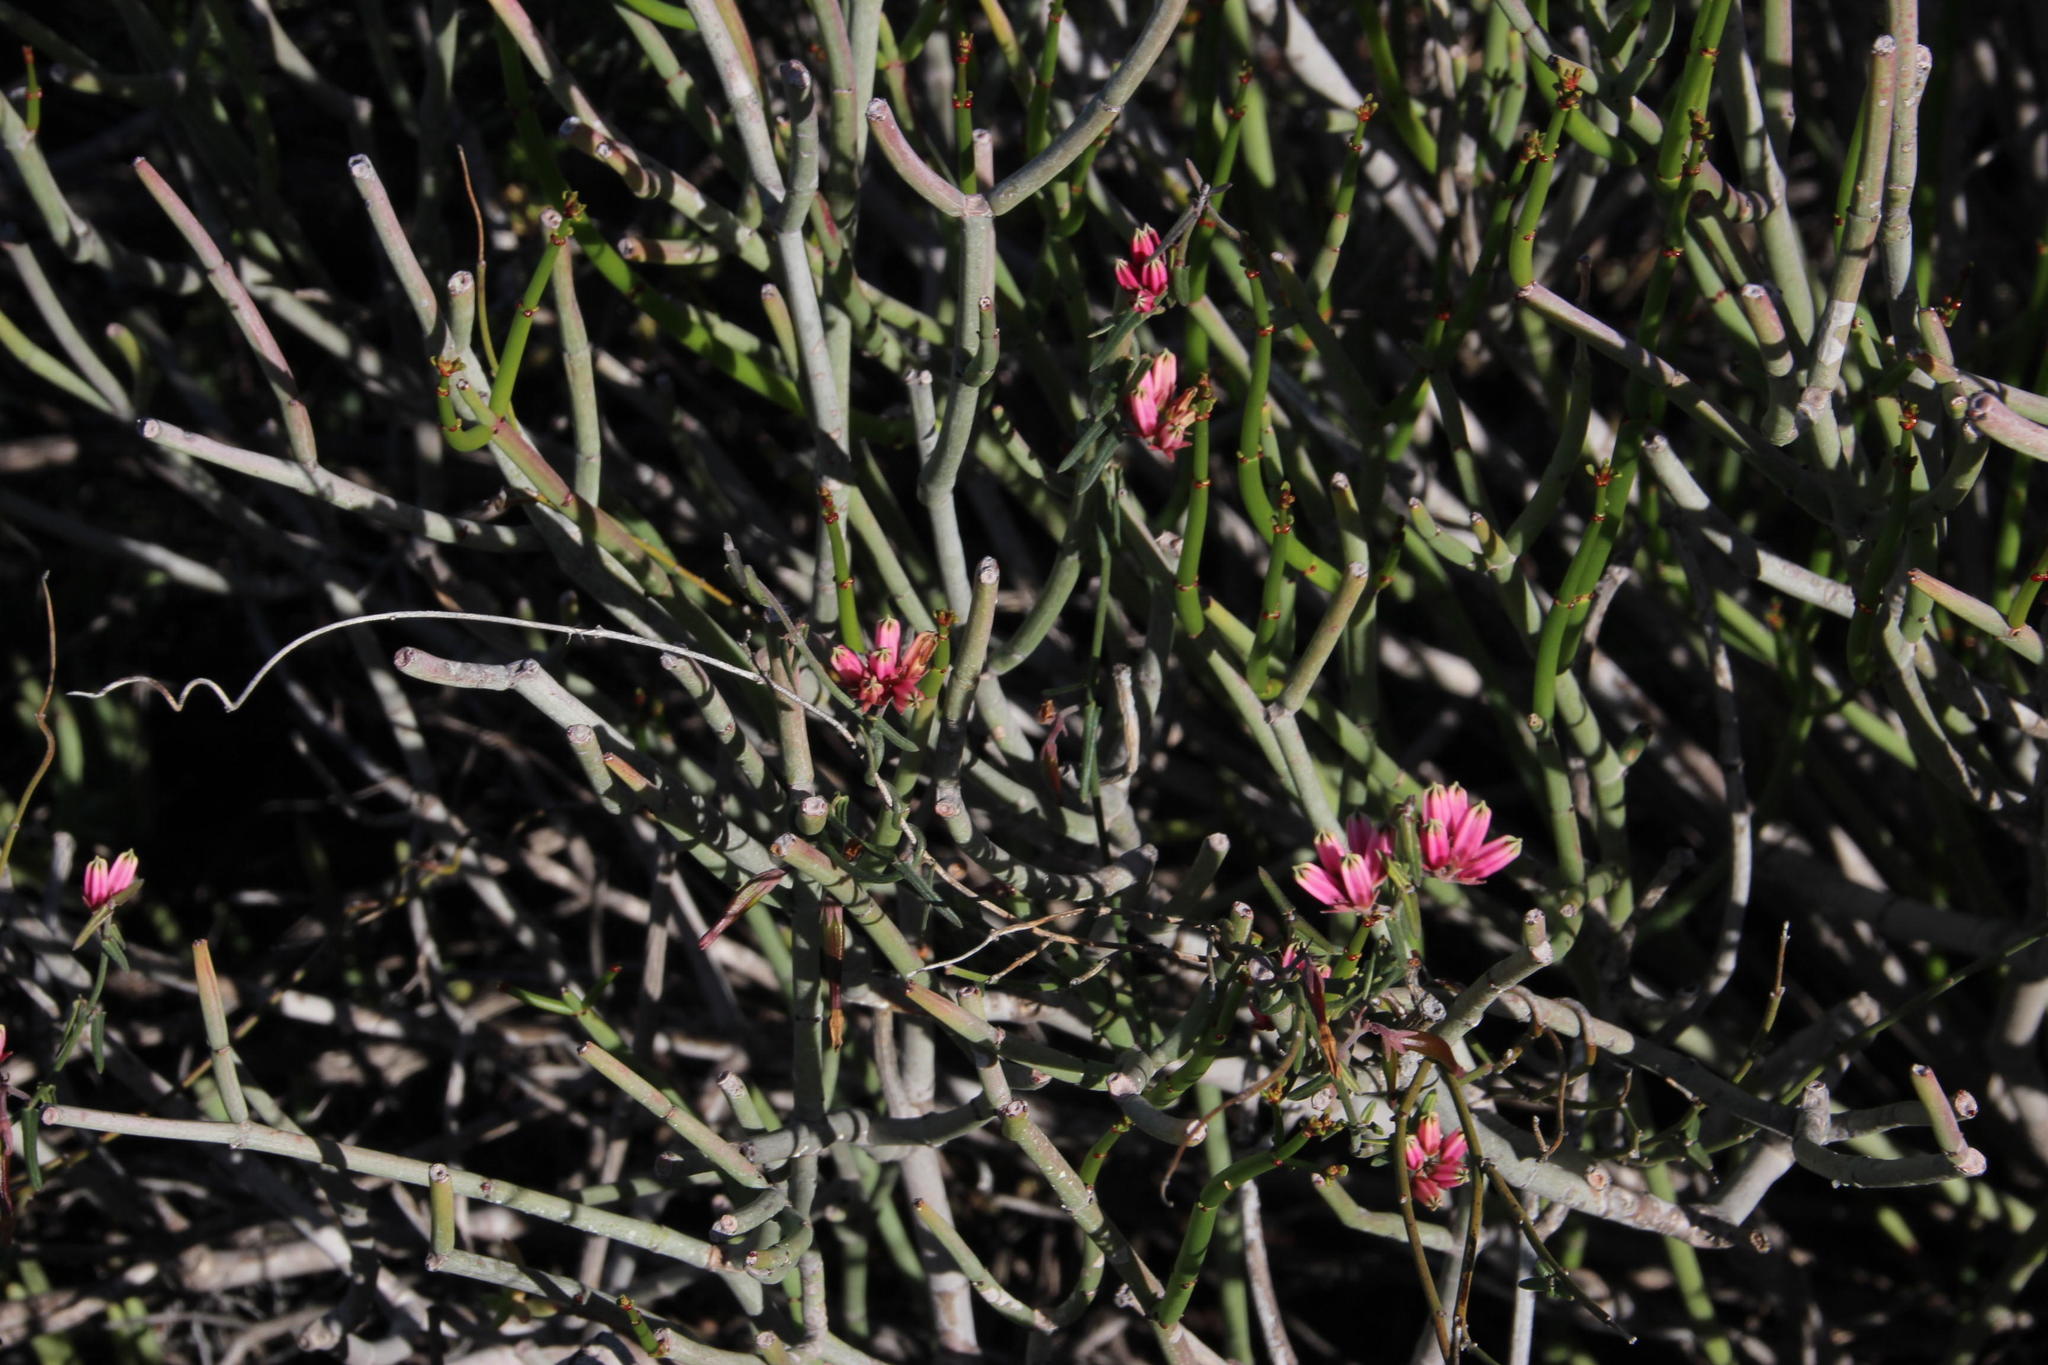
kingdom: Plantae
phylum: Tracheophyta
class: Magnoliopsida
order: Gentianales
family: Apocynaceae
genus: Microloma
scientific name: Microloma sagittatum
